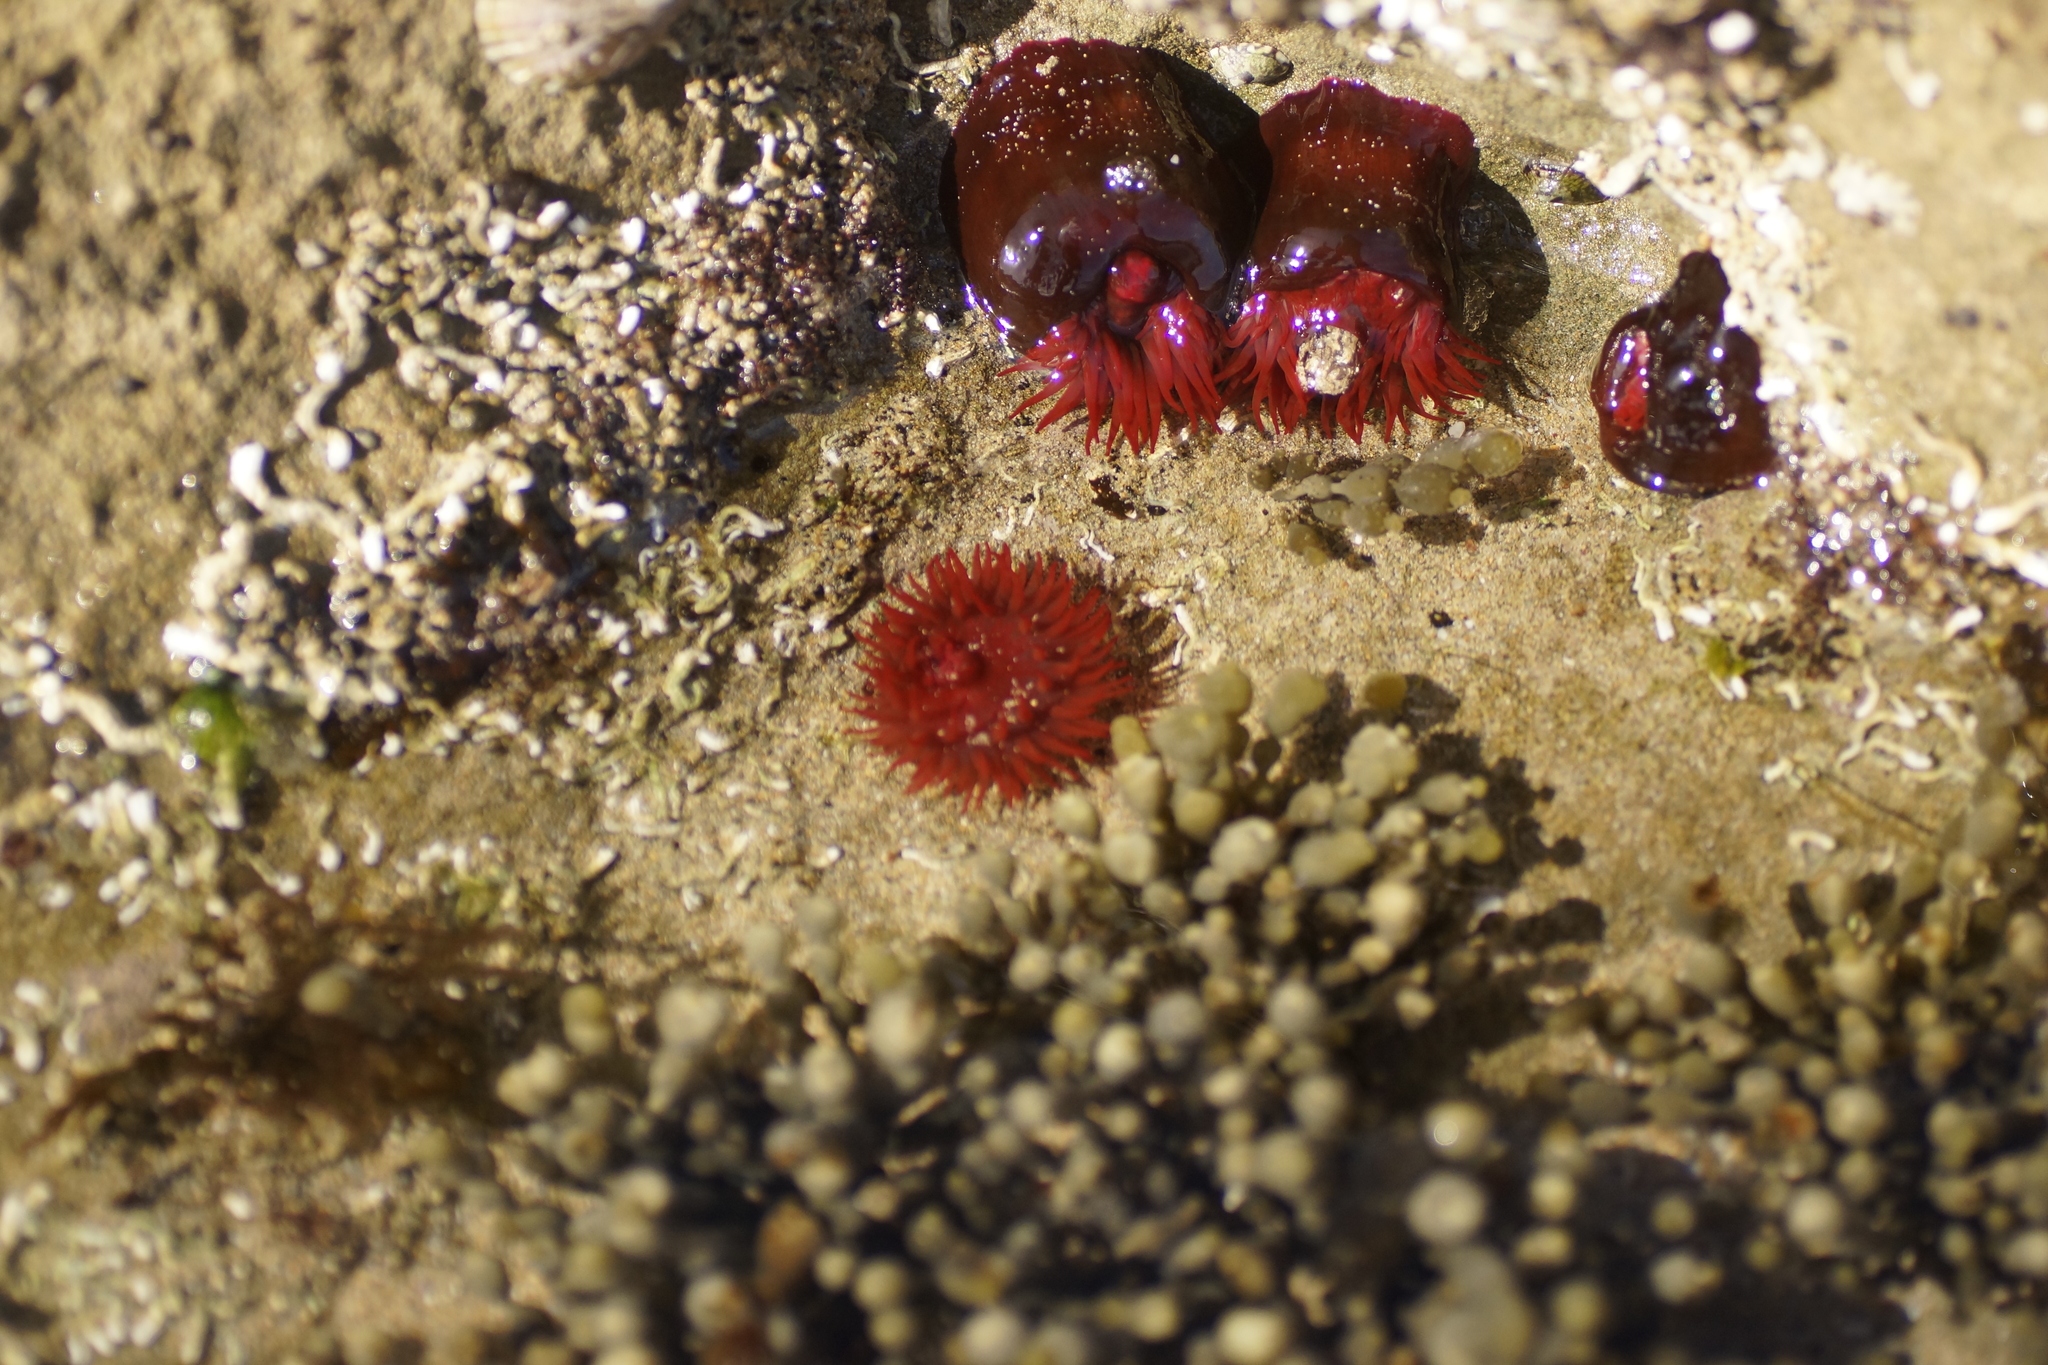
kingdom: Animalia
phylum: Cnidaria
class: Anthozoa
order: Actiniaria
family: Actiniidae
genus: Actinia
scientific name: Actinia tenebrosa
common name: Waratah anemone
